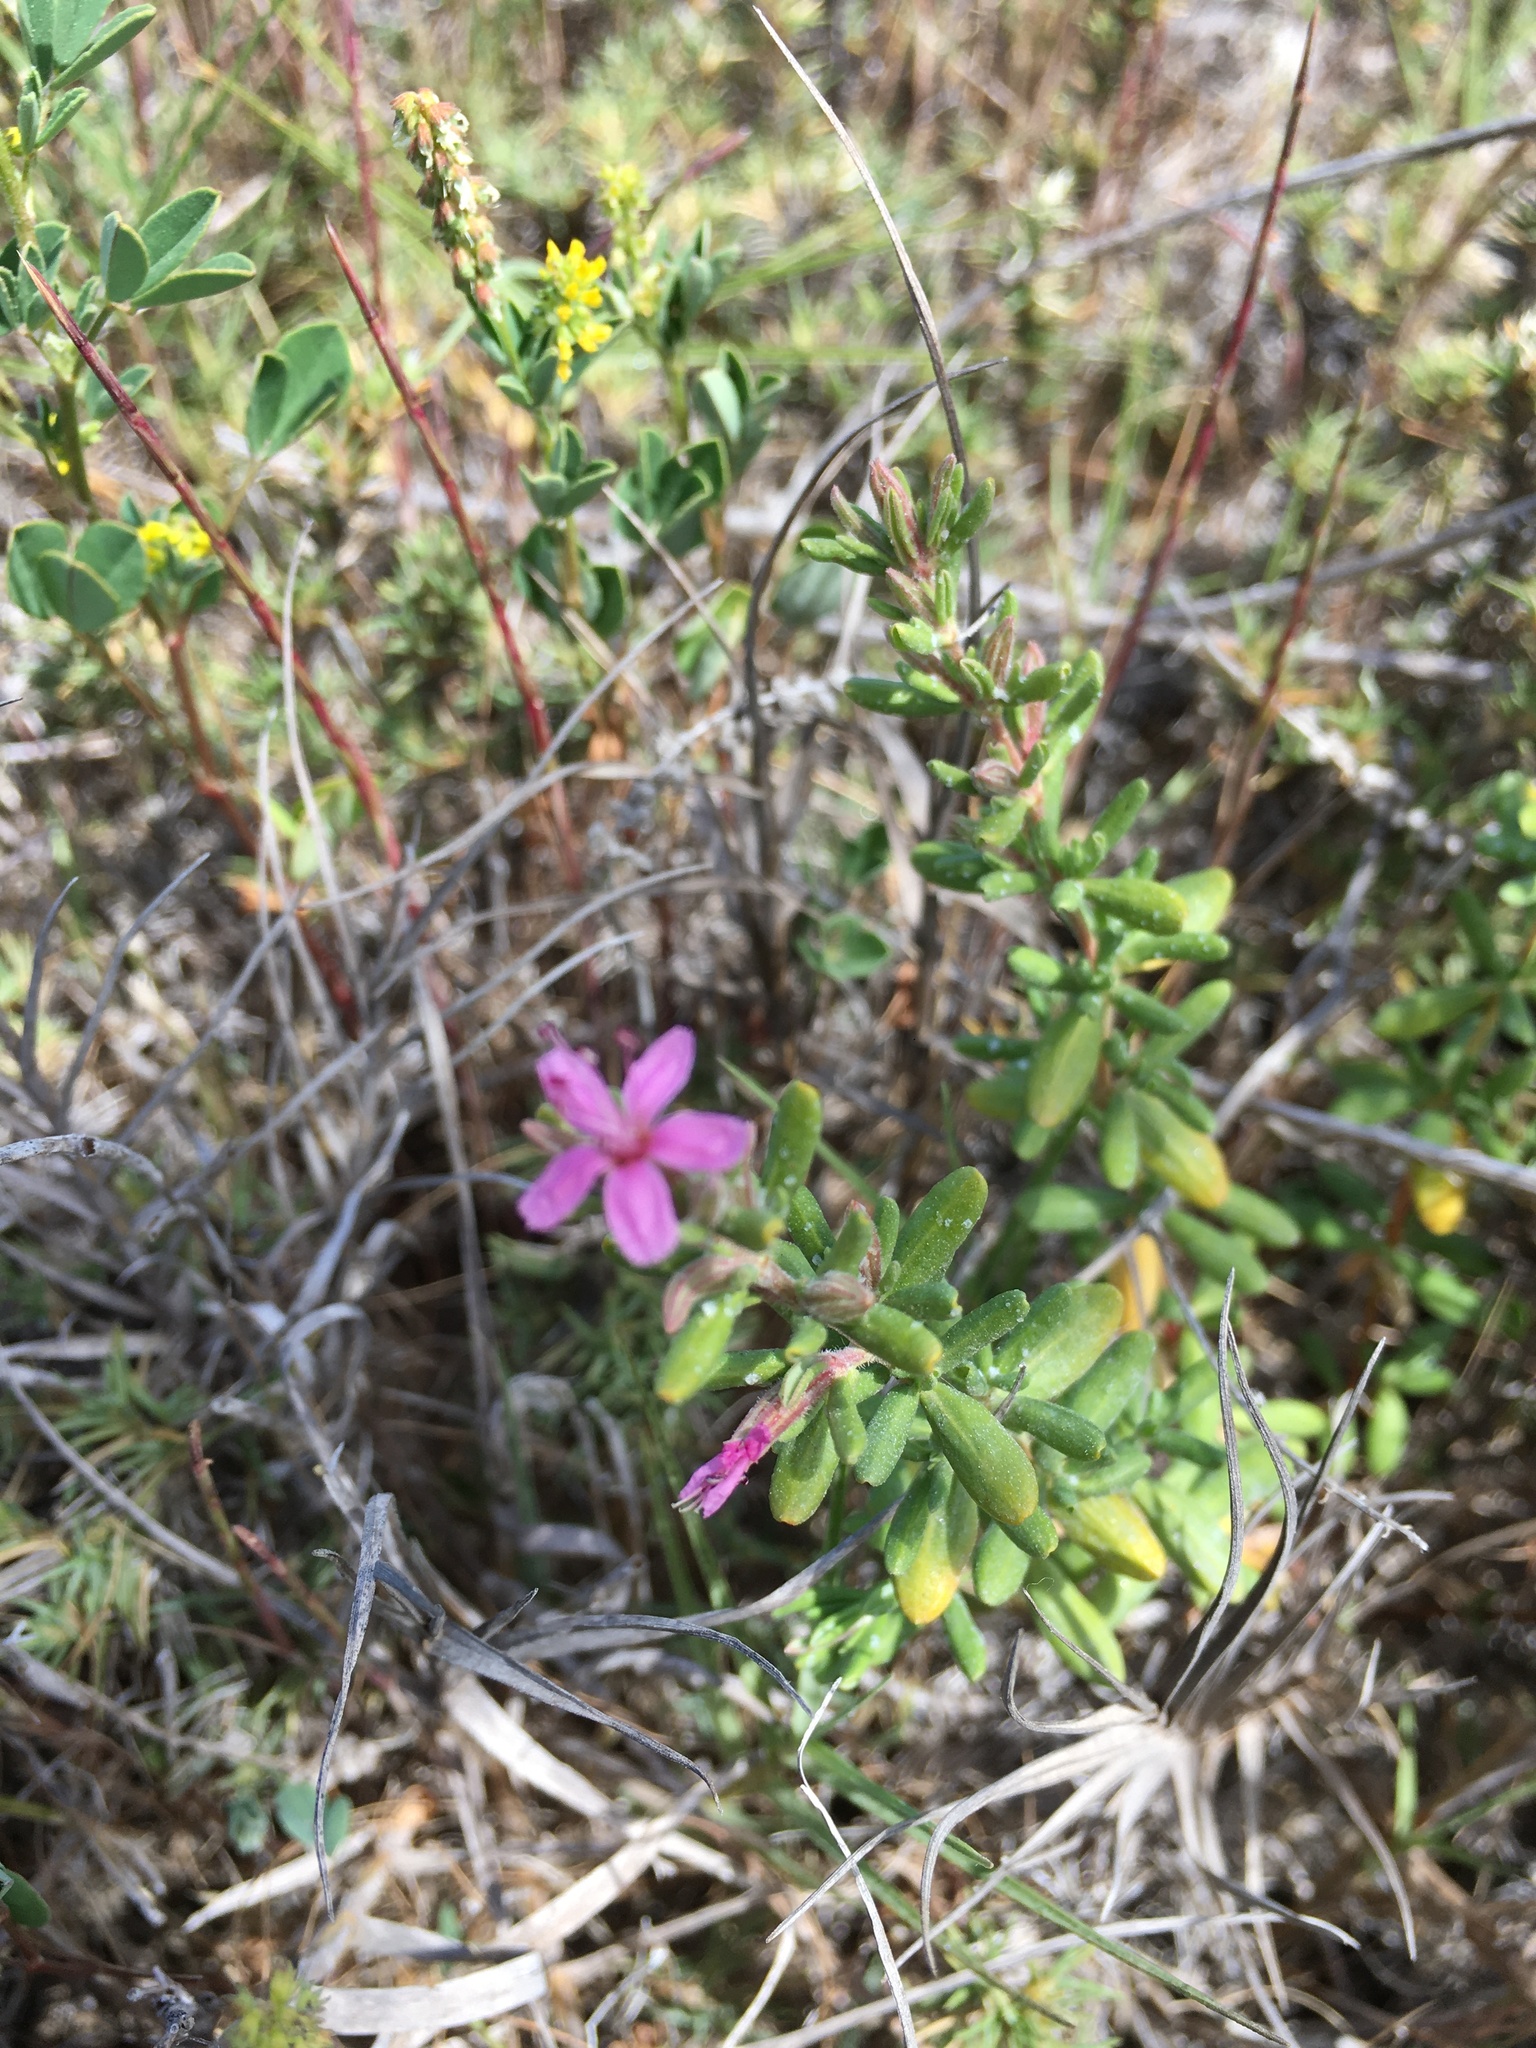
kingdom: Plantae
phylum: Tracheophyta
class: Magnoliopsida
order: Caryophyllales
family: Frankeniaceae
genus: Frankenia
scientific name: Frankenia salina
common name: Alkali seaheath
